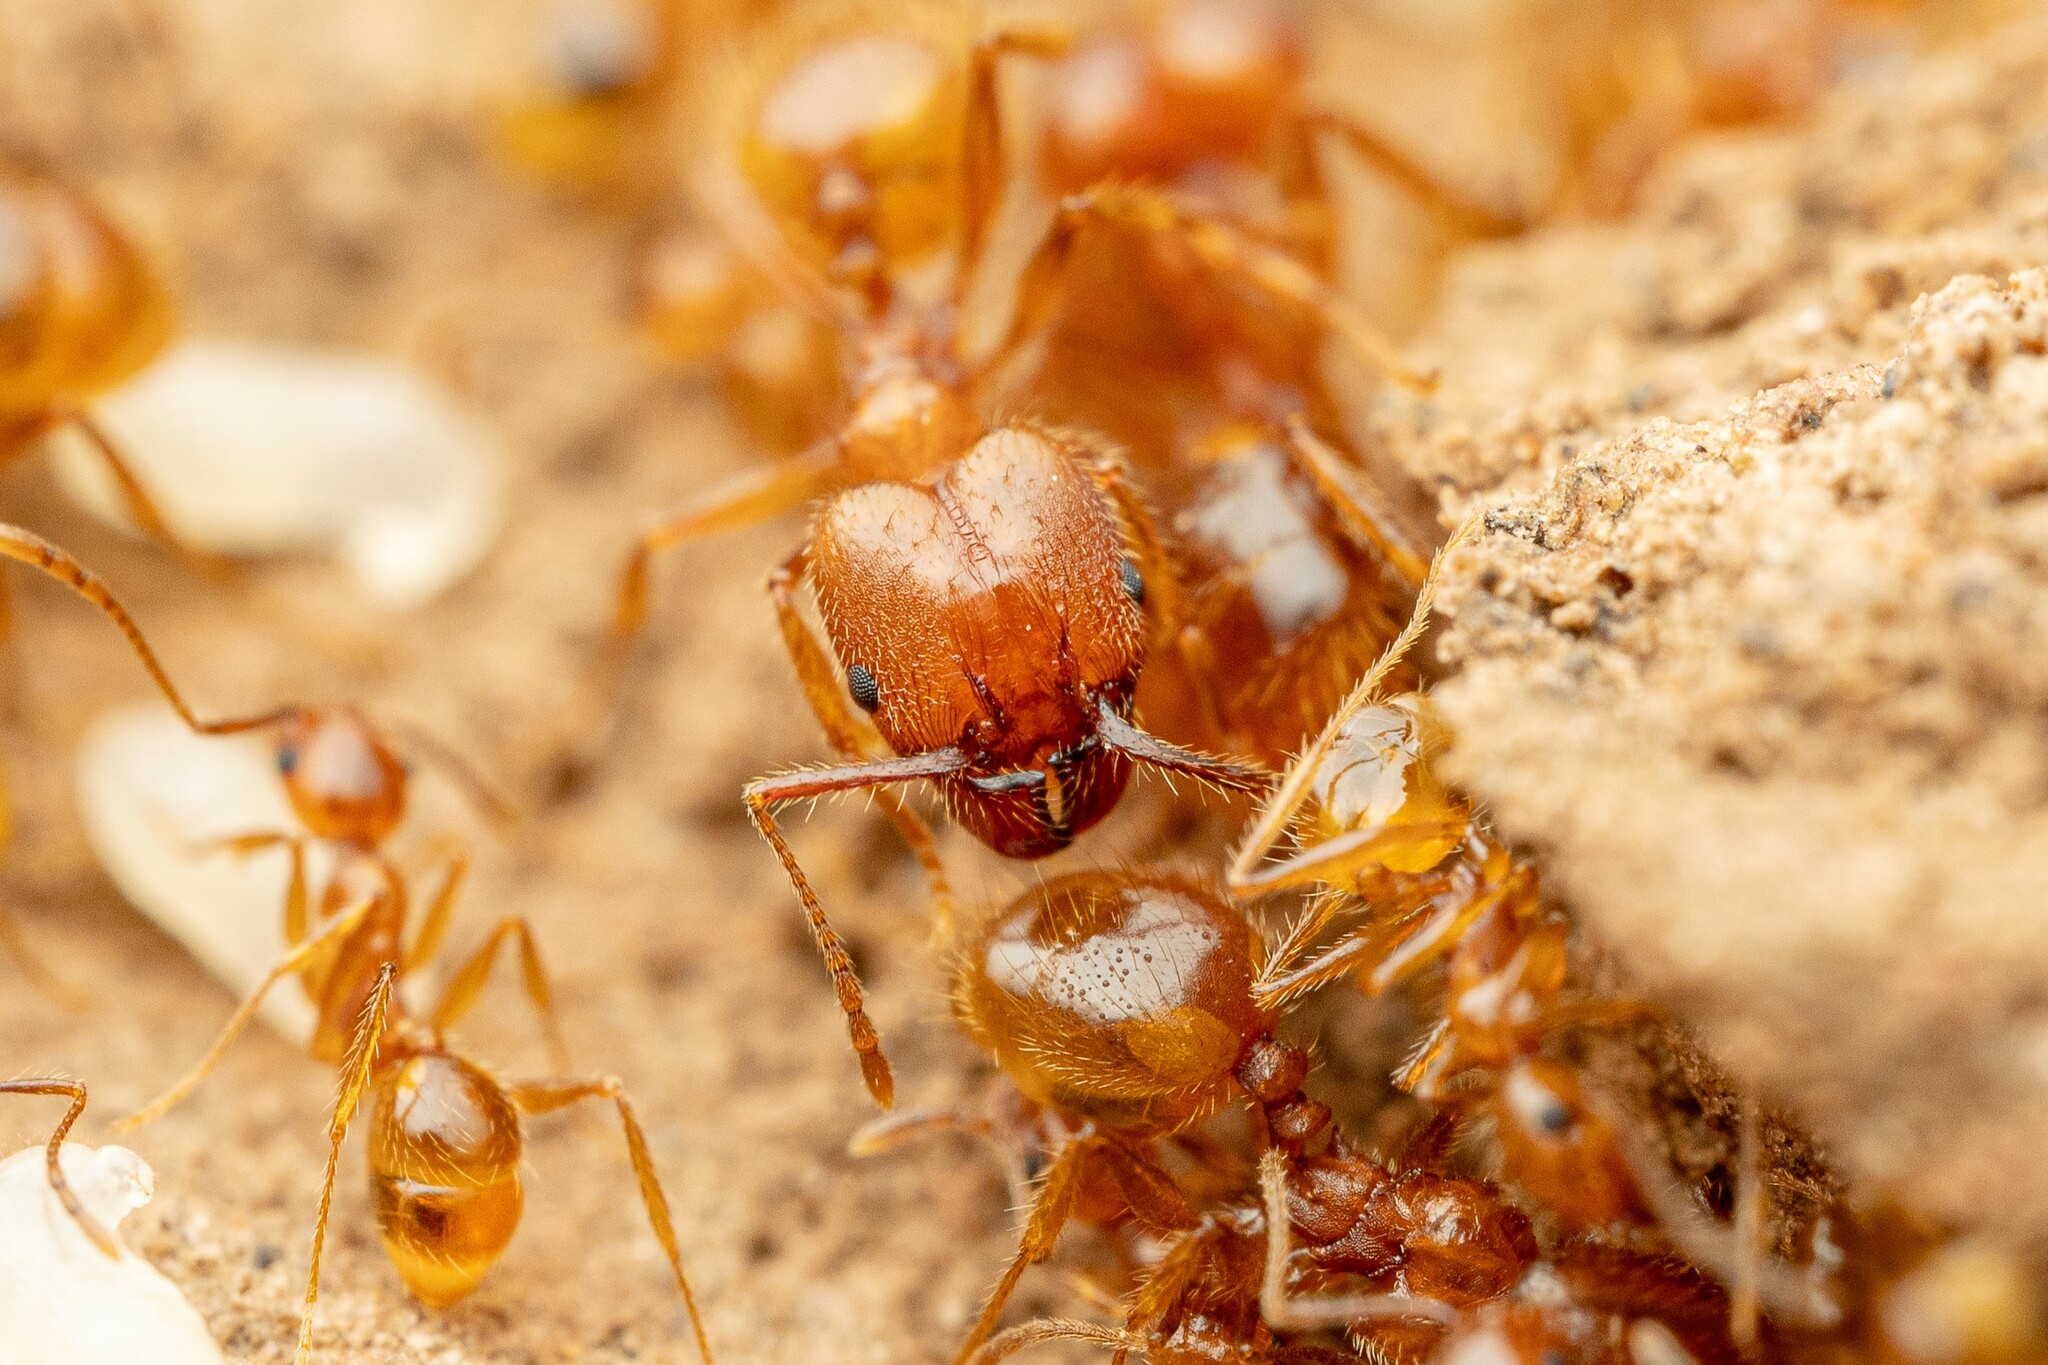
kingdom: Animalia
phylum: Arthropoda
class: Insecta
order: Hymenoptera
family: Formicidae
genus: Pheidole
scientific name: Pheidole hyatti
